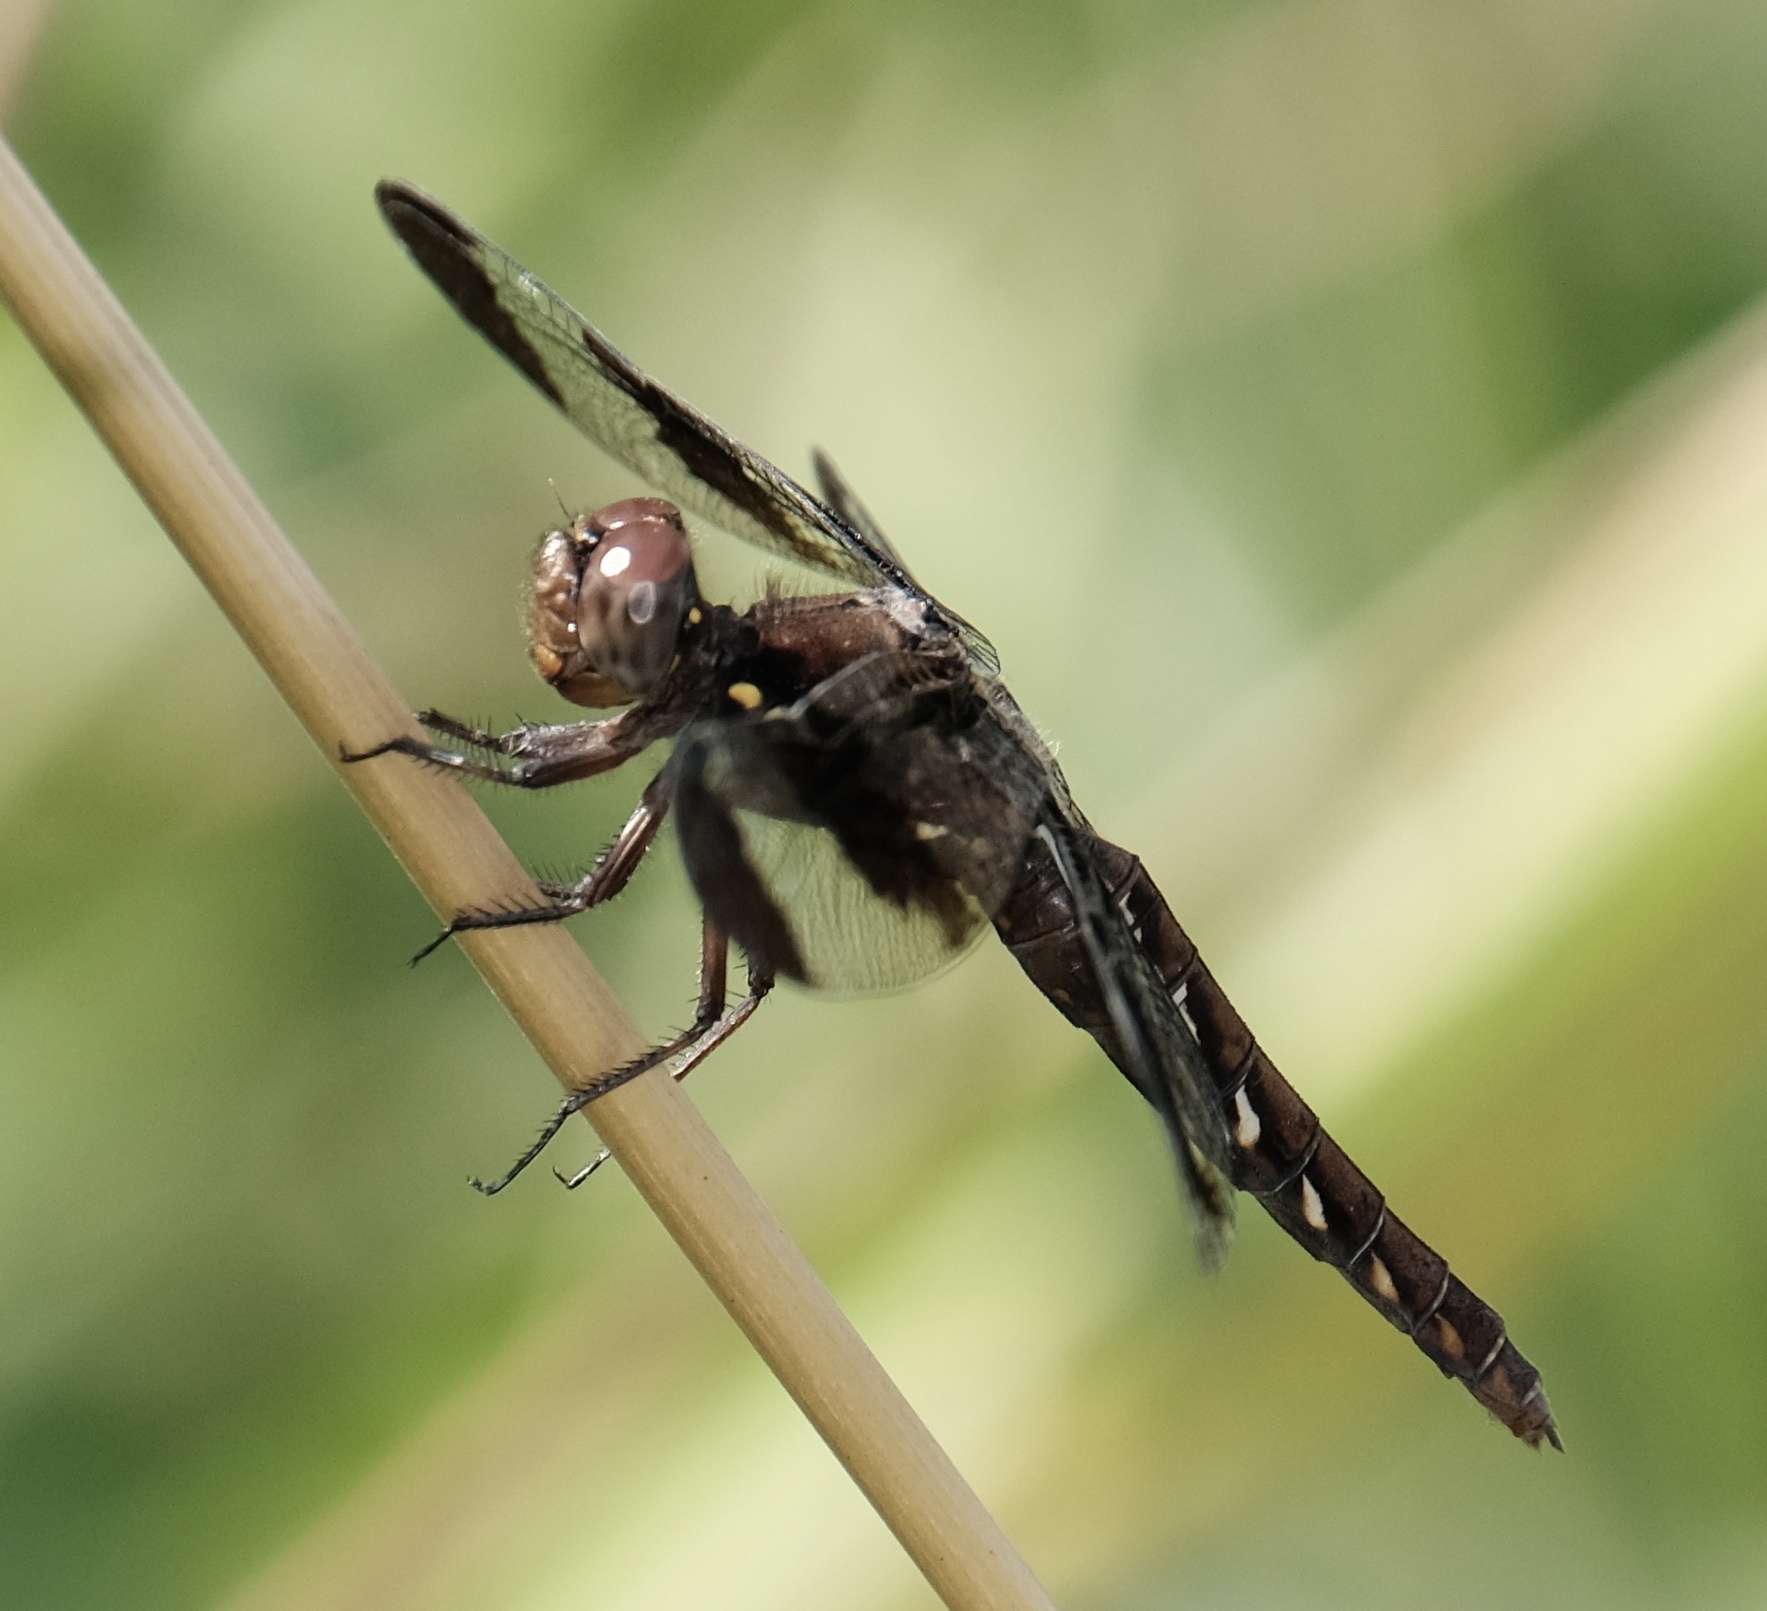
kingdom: Animalia
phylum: Arthropoda
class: Insecta
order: Odonata
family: Libellulidae
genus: Plathemis
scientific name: Plathemis lydia
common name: Common whitetail
